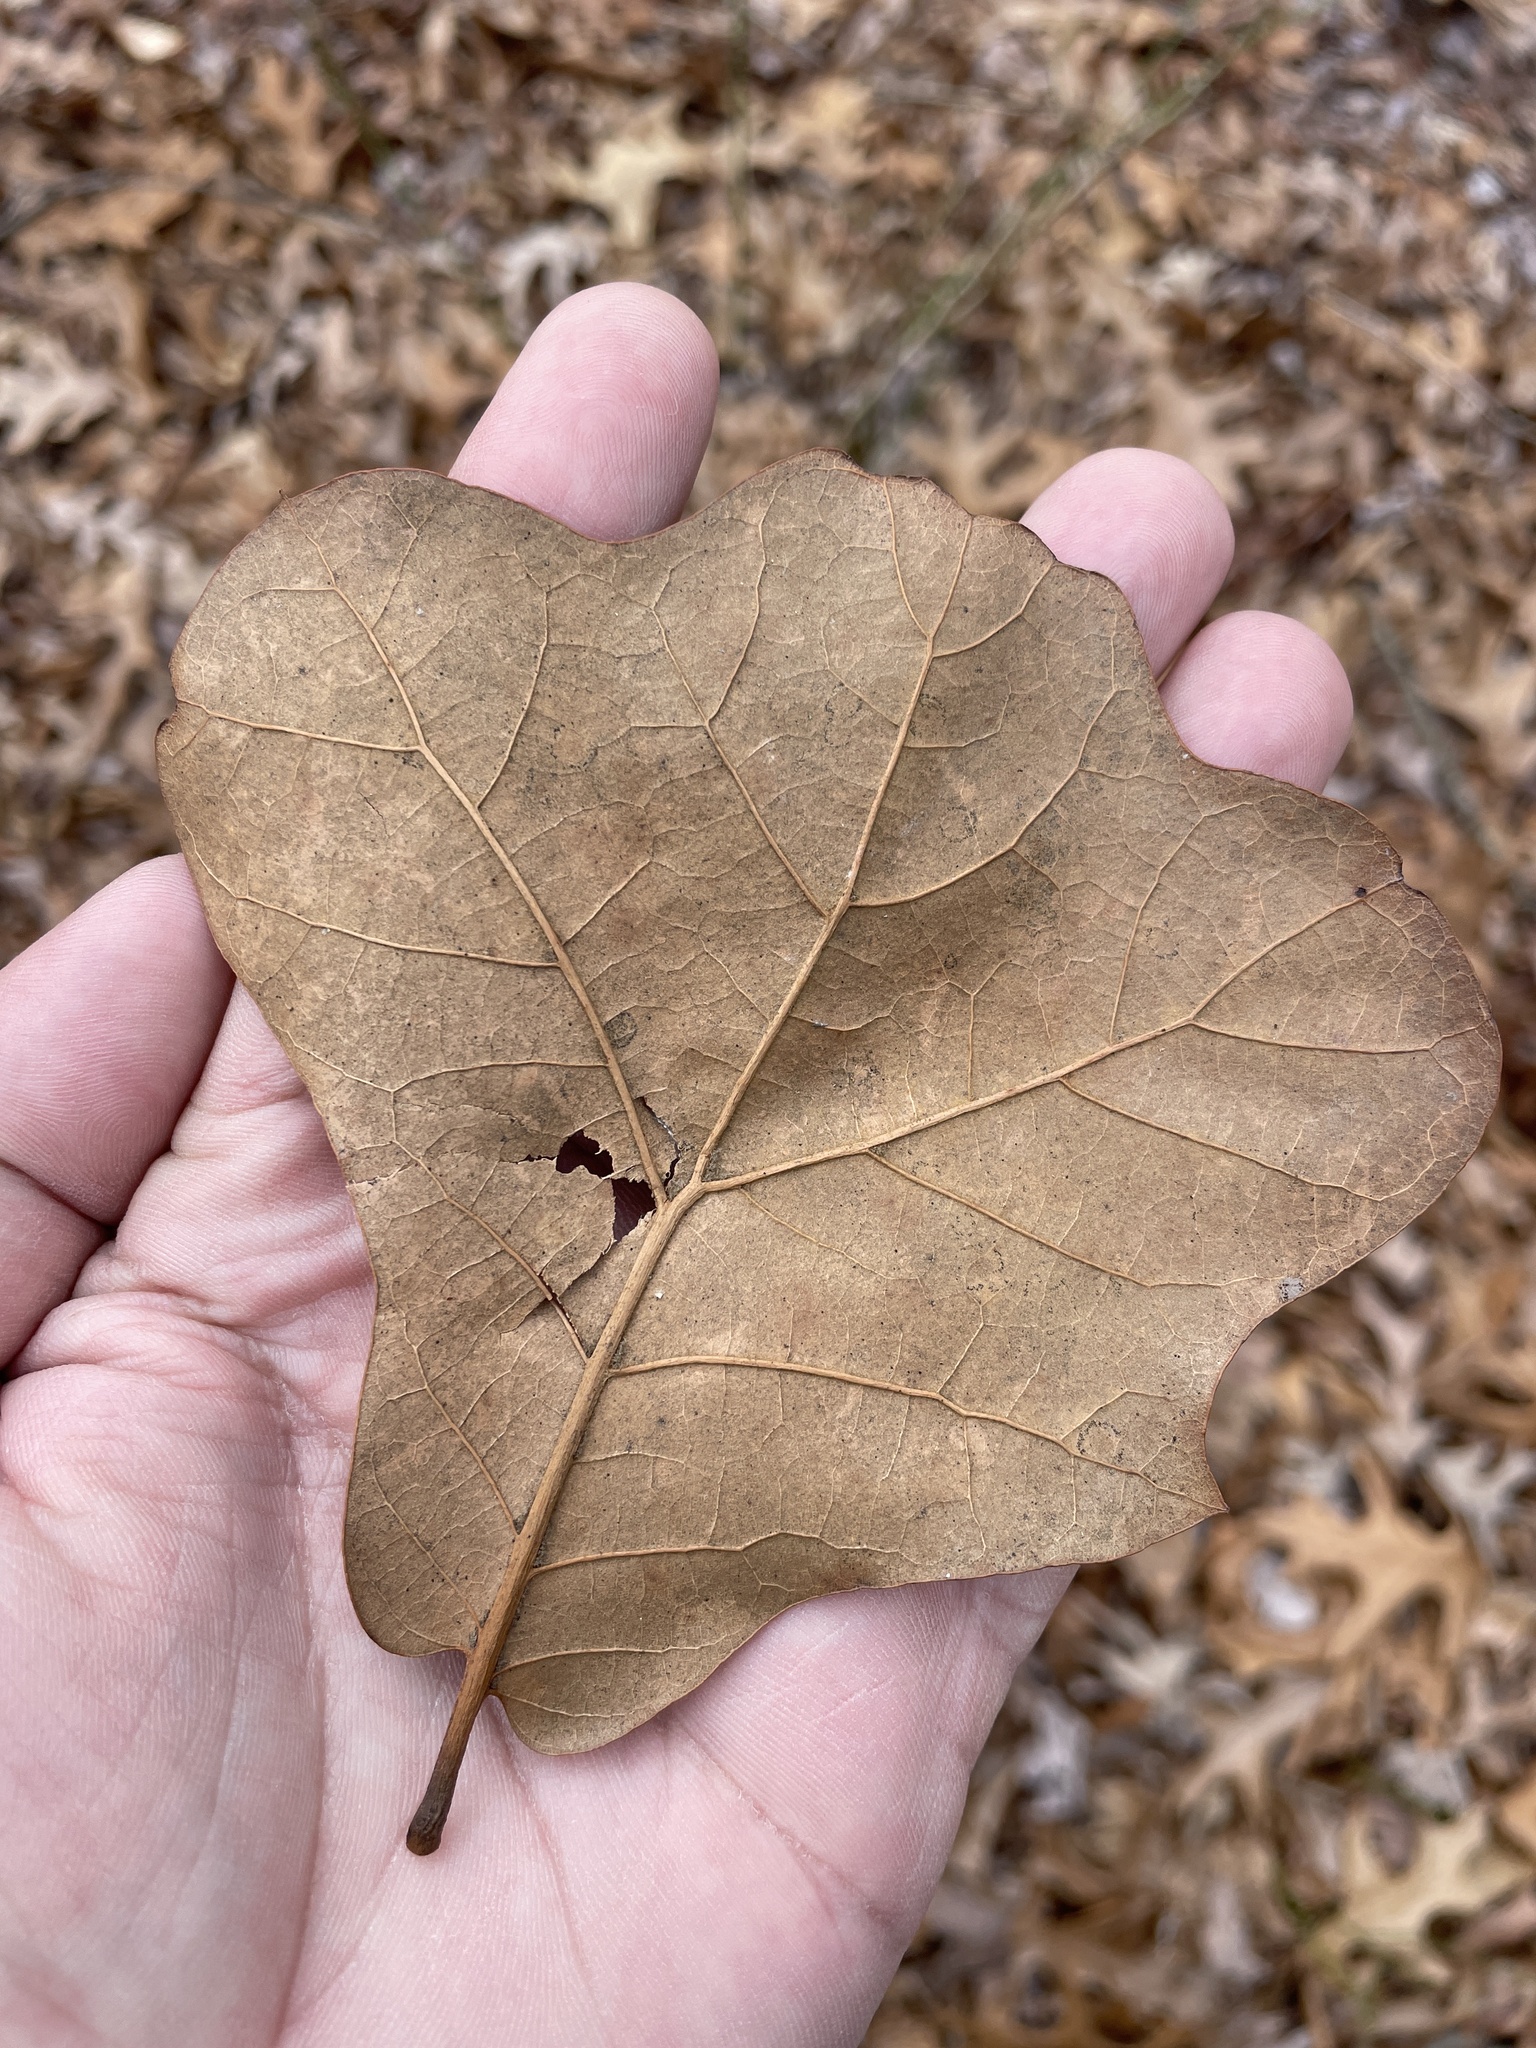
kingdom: Plantae
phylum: Tracheophyta
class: Magnoliopsida
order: Fagales
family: Fagaceae
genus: Quercus
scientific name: Quercus marilandica
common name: Blackjack oak
